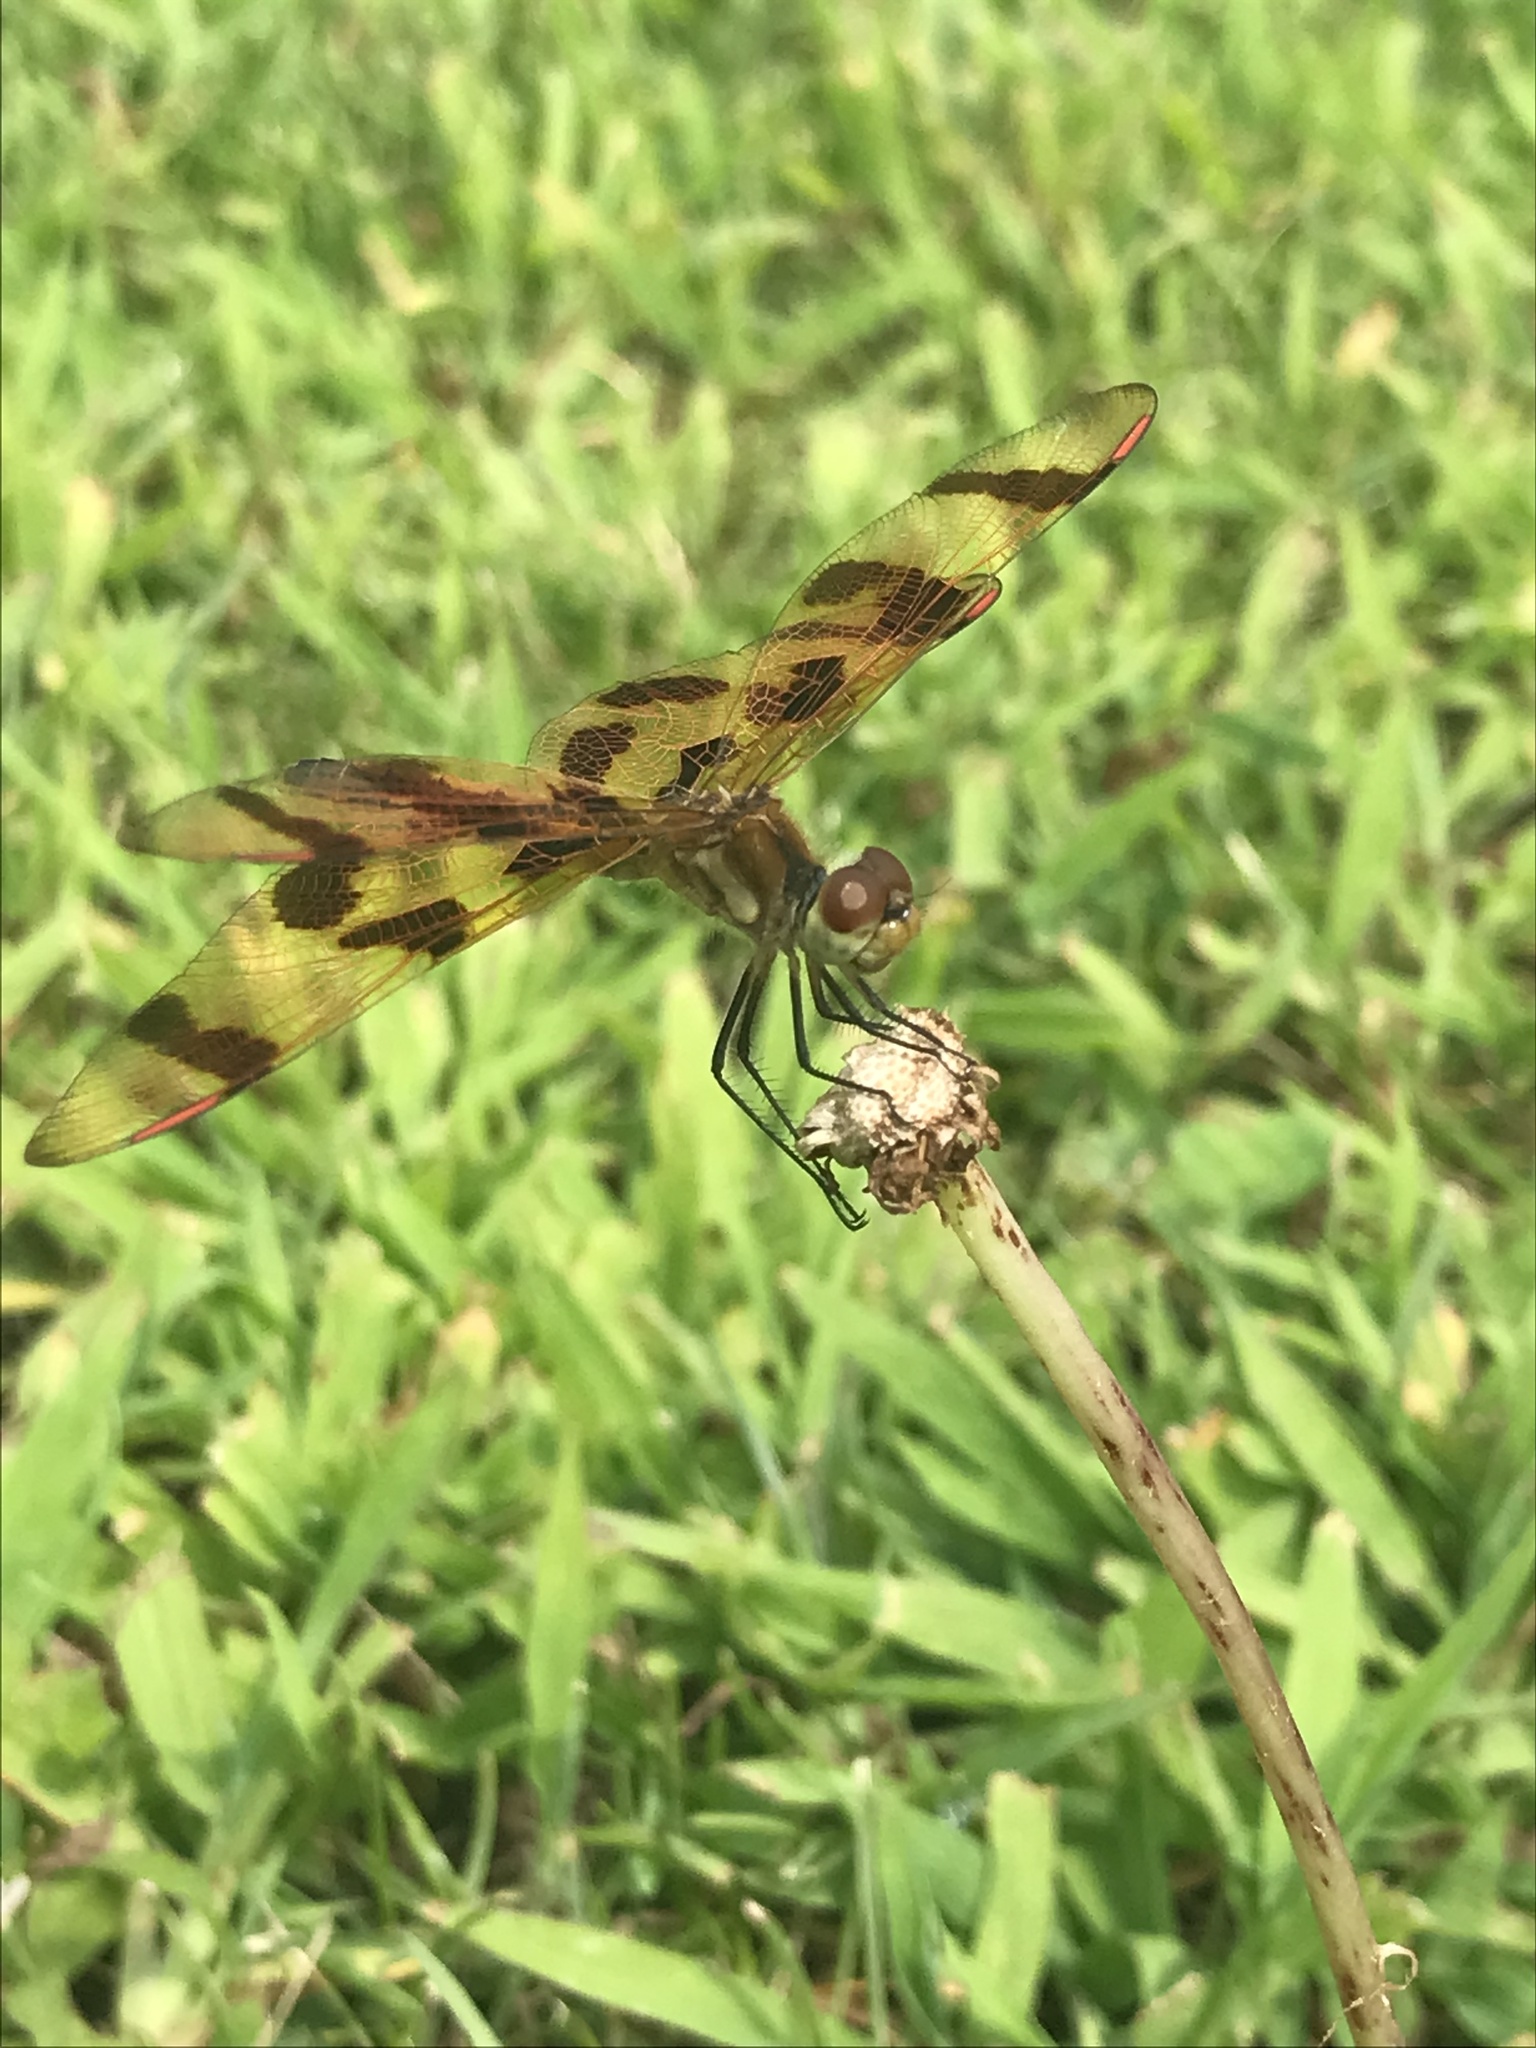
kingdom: Animalia
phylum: Arthropoda
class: Insecta
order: Odonata
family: Libellulidae
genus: Celithemis
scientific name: Celithemis eponina
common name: Halloween pennant
